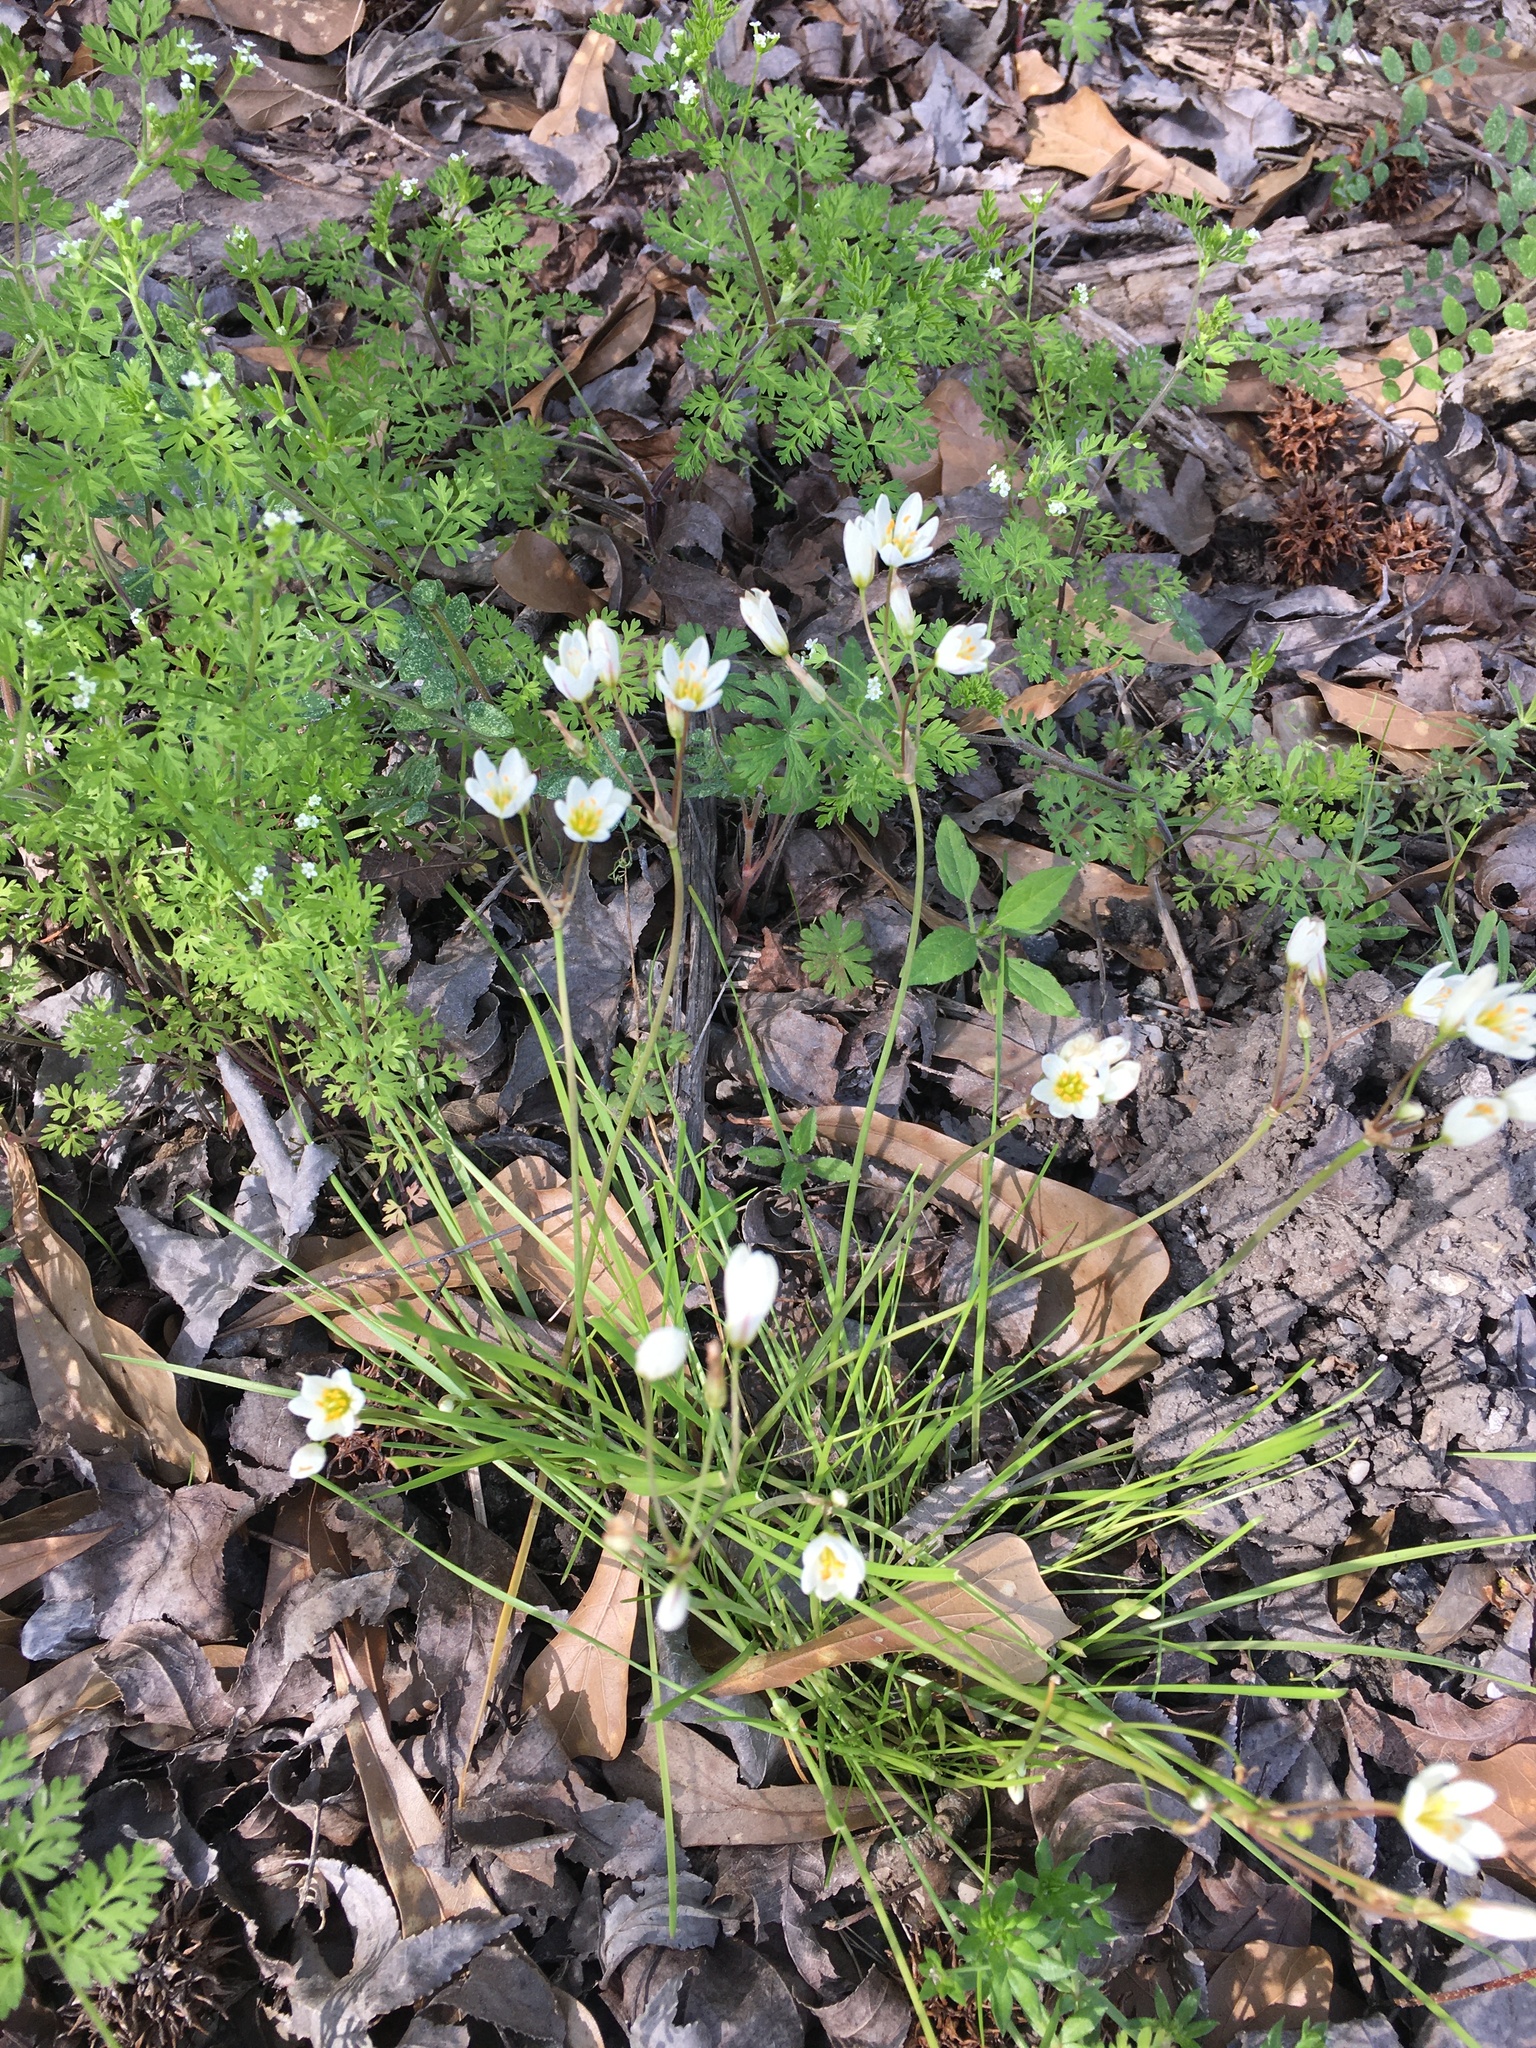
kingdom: Plantae
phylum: Tracheophyta
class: Liliopsida
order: Asparagales
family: Amaryllidaceae
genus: Nothoscordum
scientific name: Nothoscordum bivalve
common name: Crow-poison
